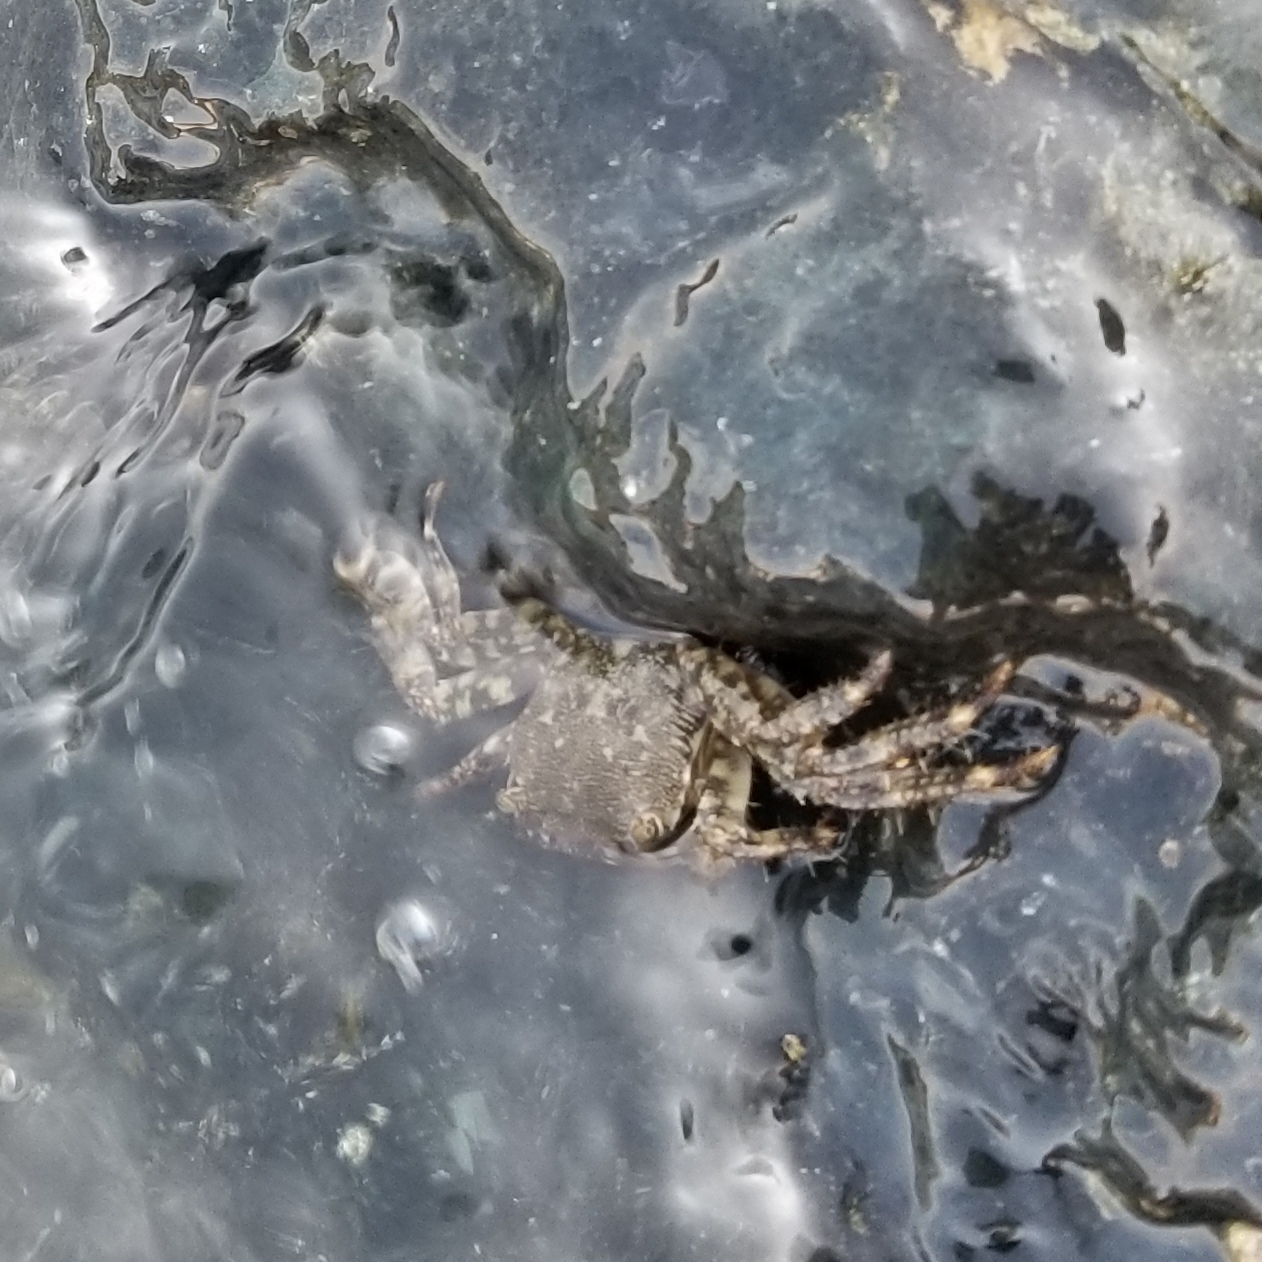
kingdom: Animalia
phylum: Arthropoda
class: Malacostraca
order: Decapoda
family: Grapsidae
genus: Pachygrapsus
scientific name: Pachygrapsus marmoratus
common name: Marbled rock crab
